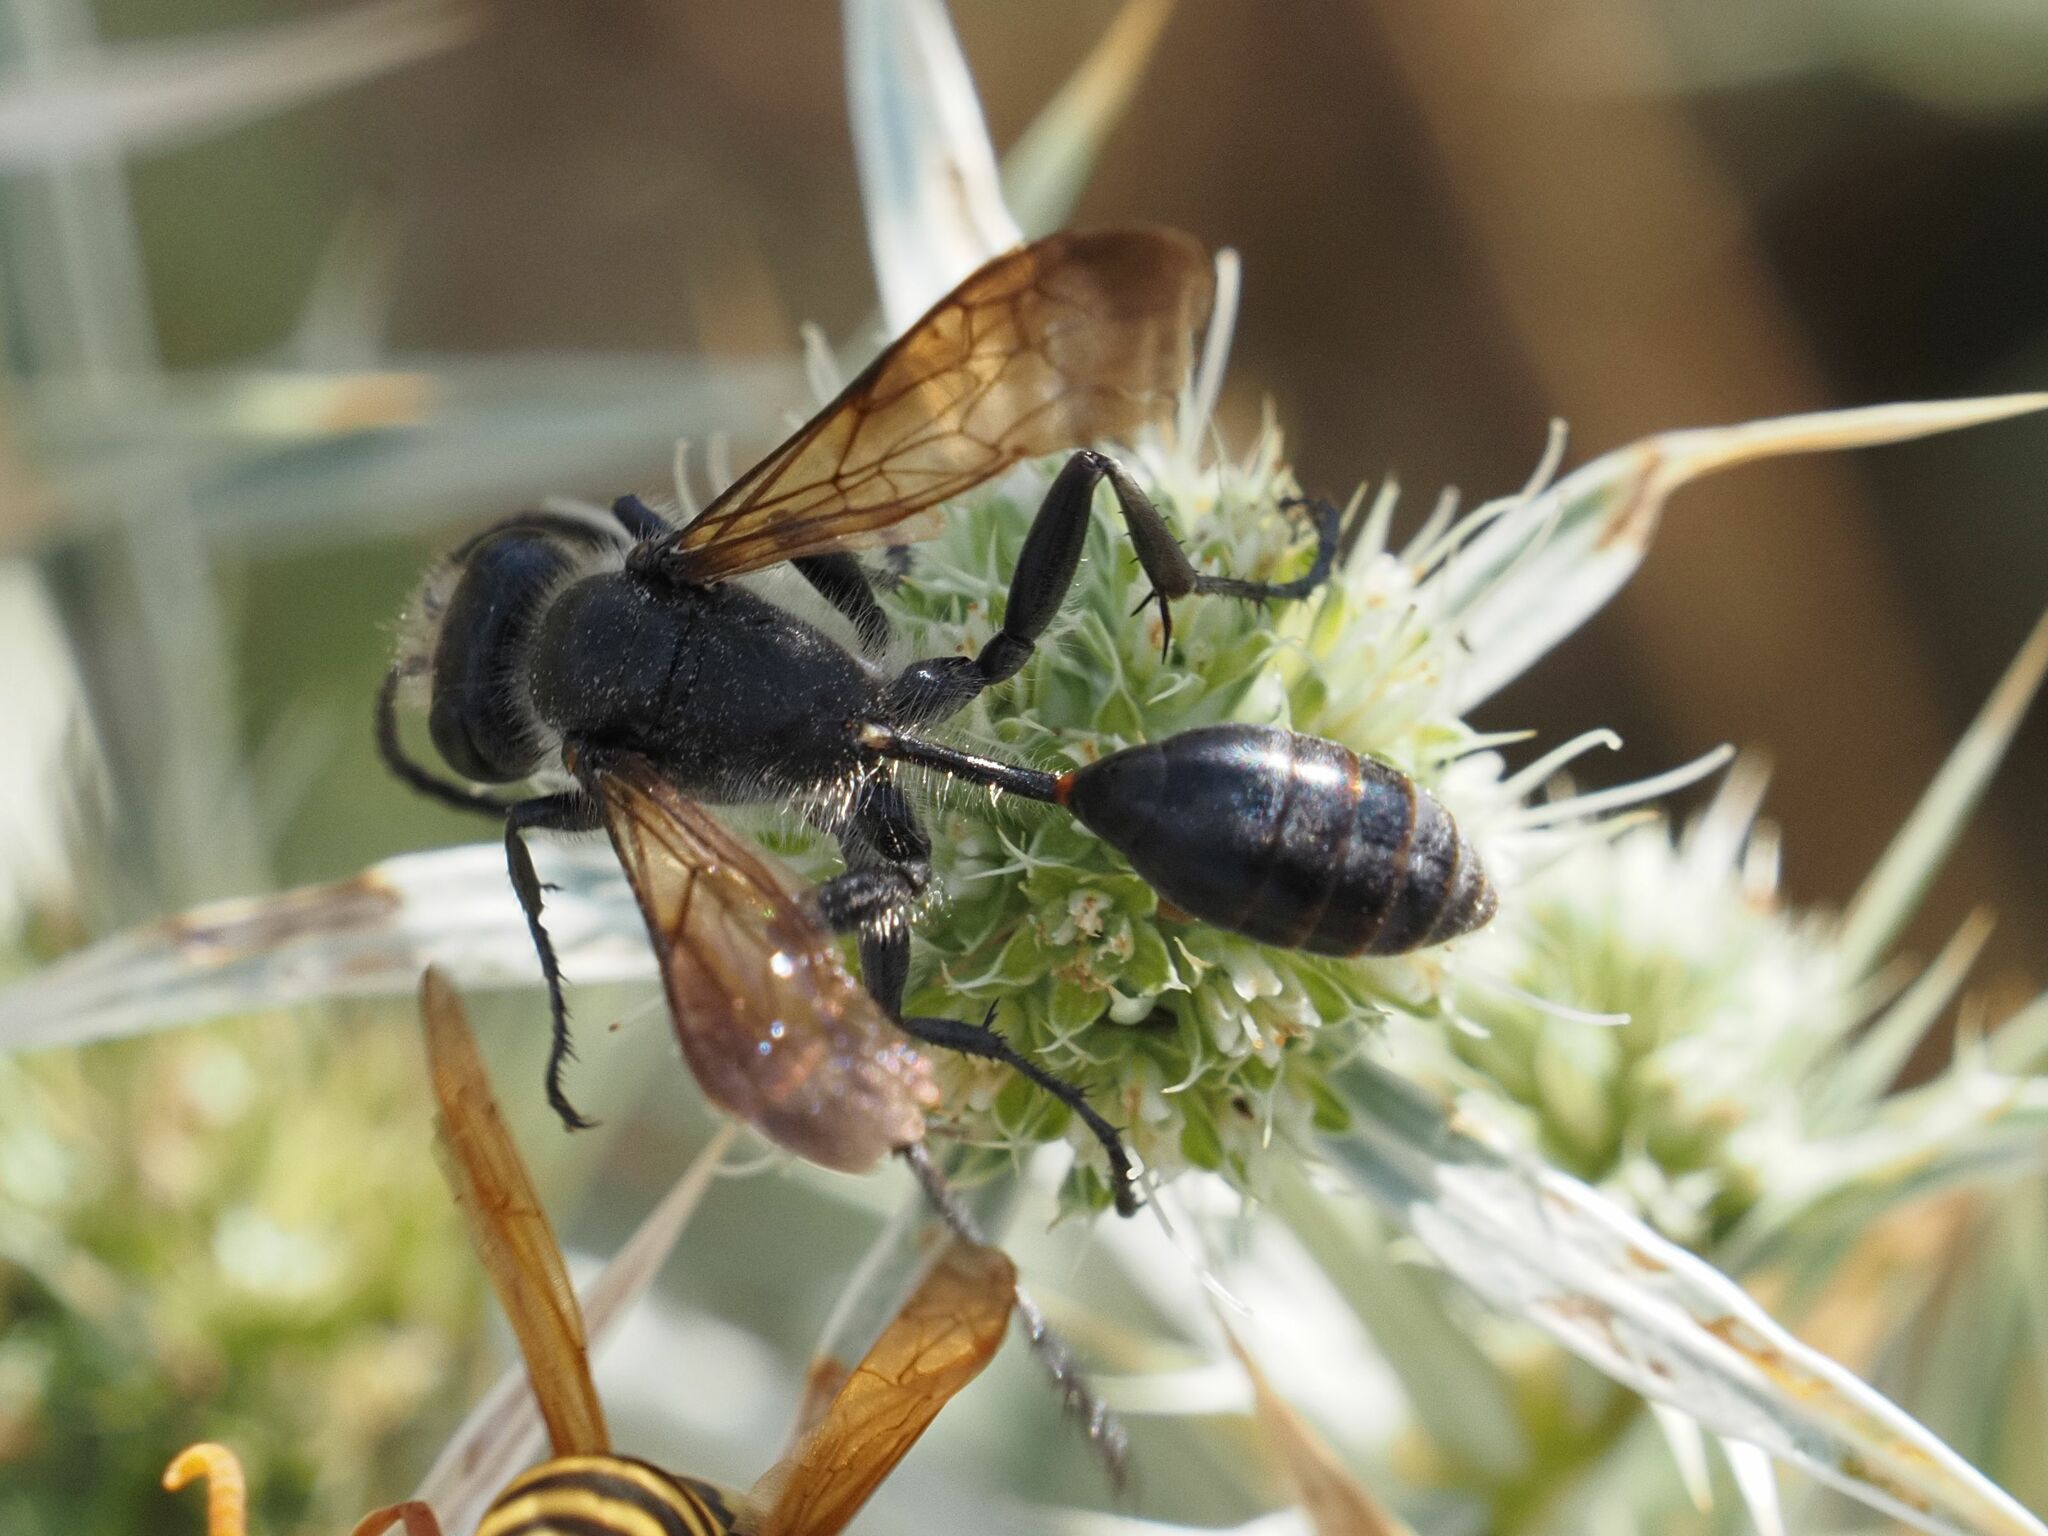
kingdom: Animalia
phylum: Arthropoda
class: Insecta
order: Hymenoptera
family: Sphecidae
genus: Isodontia
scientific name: Isodontia mexicana
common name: Mud dauber
